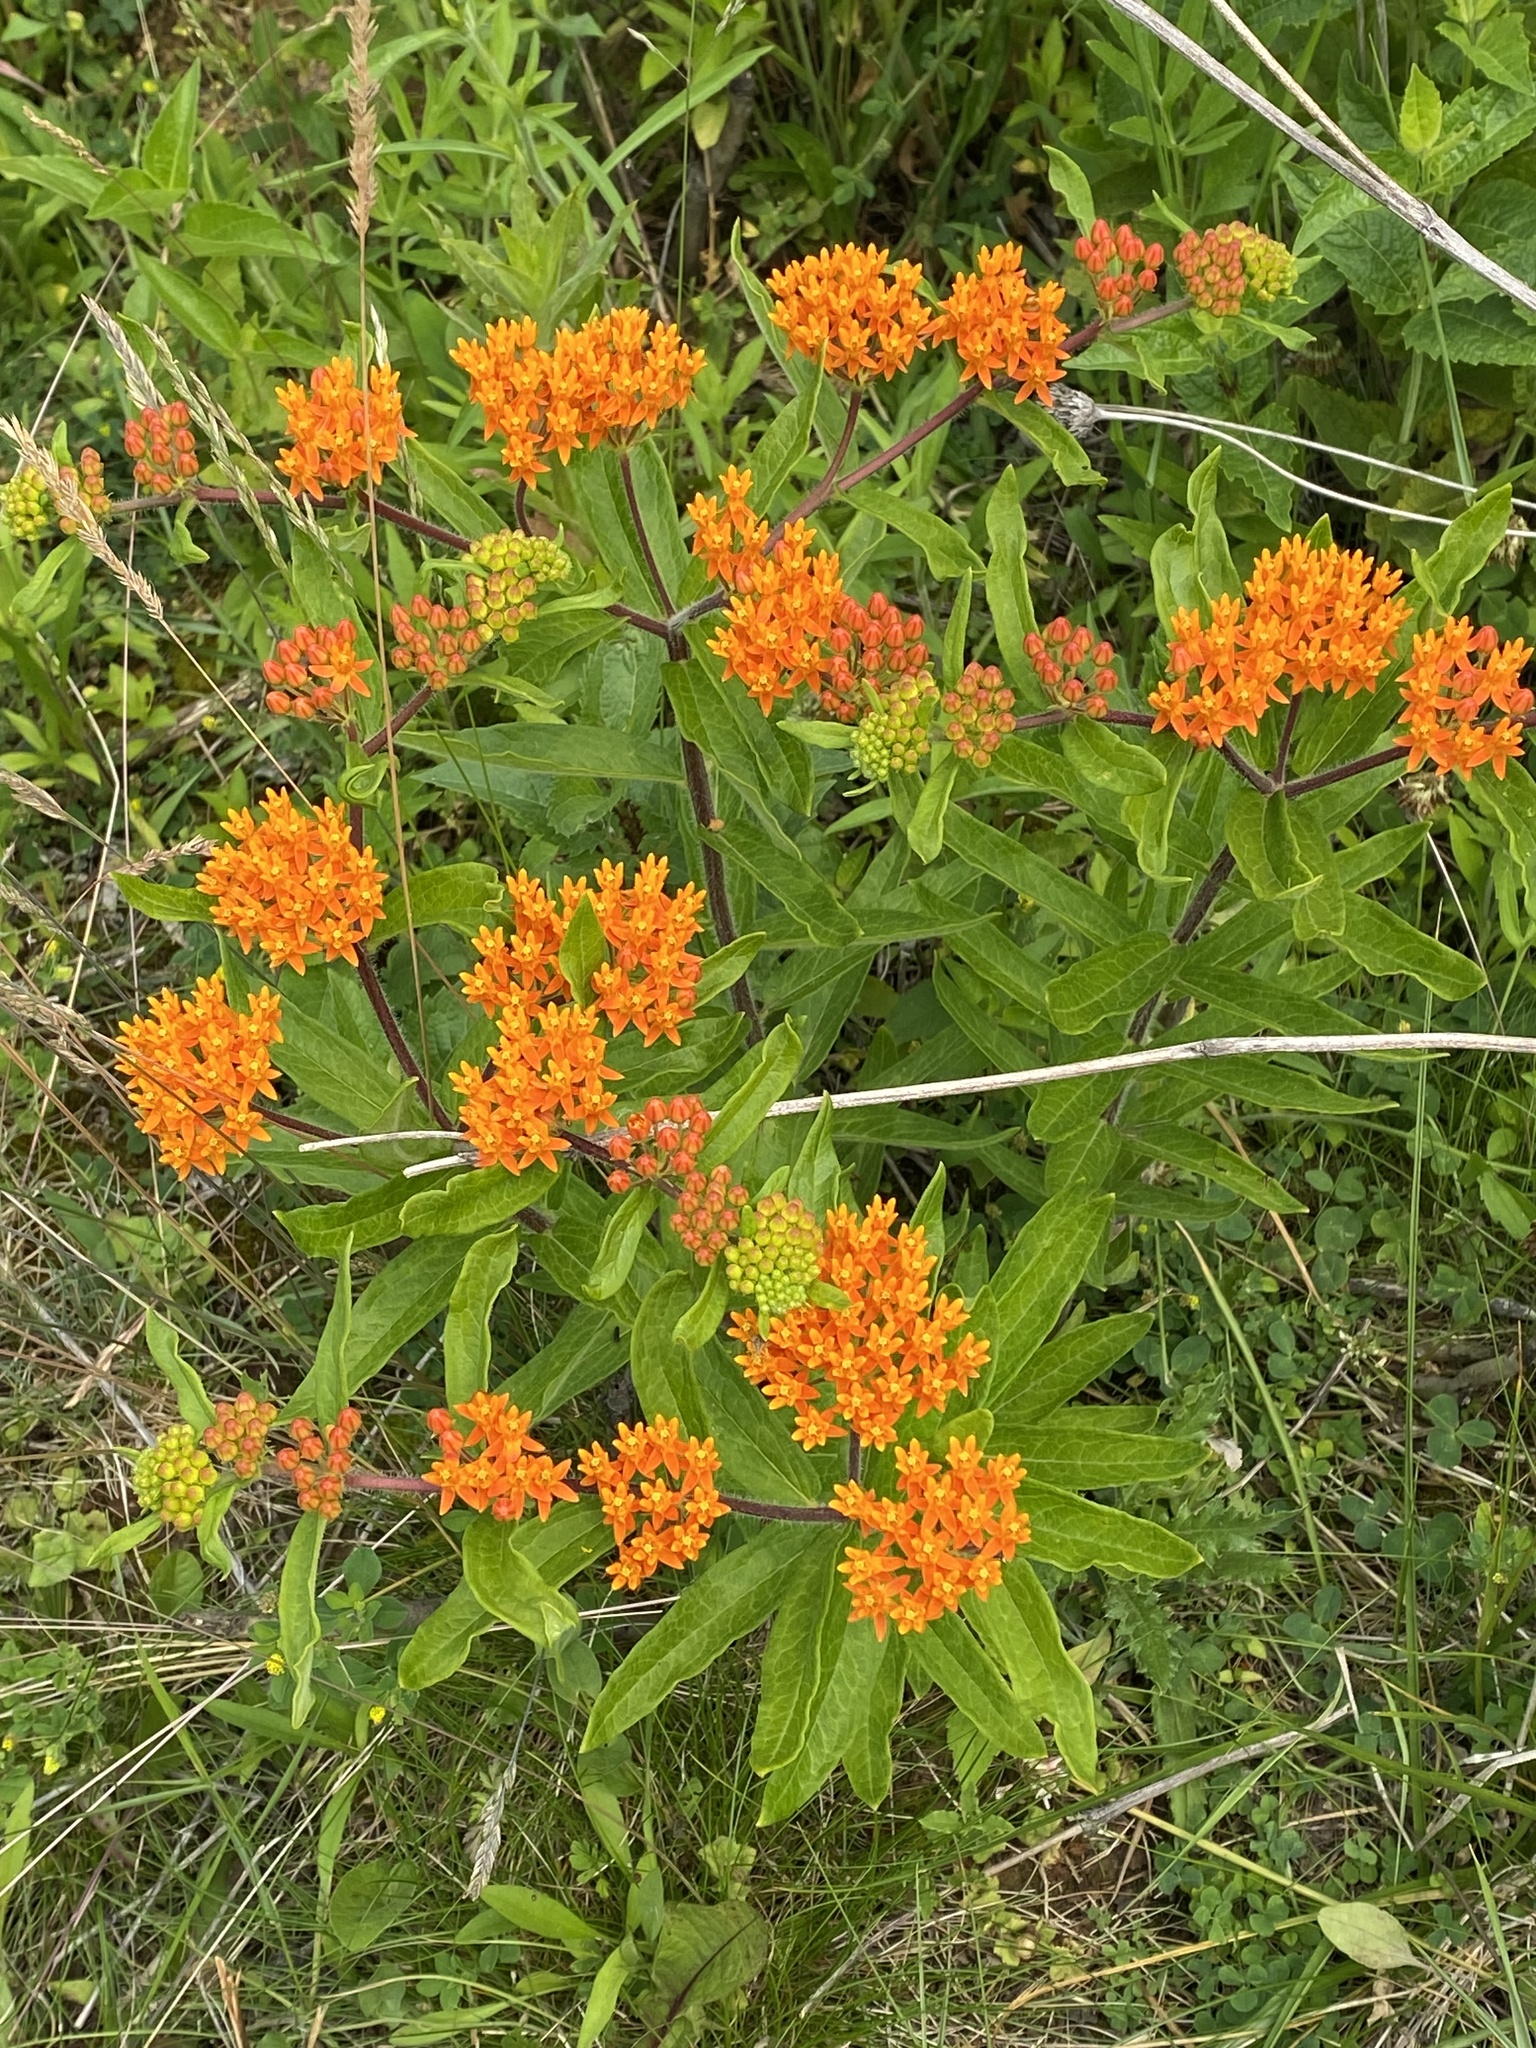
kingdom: Plantae
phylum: Tracheophyta
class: Magnoliopsida
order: Gentianales
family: Apocynaceae
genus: Asclepias
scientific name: Asclepias tuberosa
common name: Butterfly milkweed
